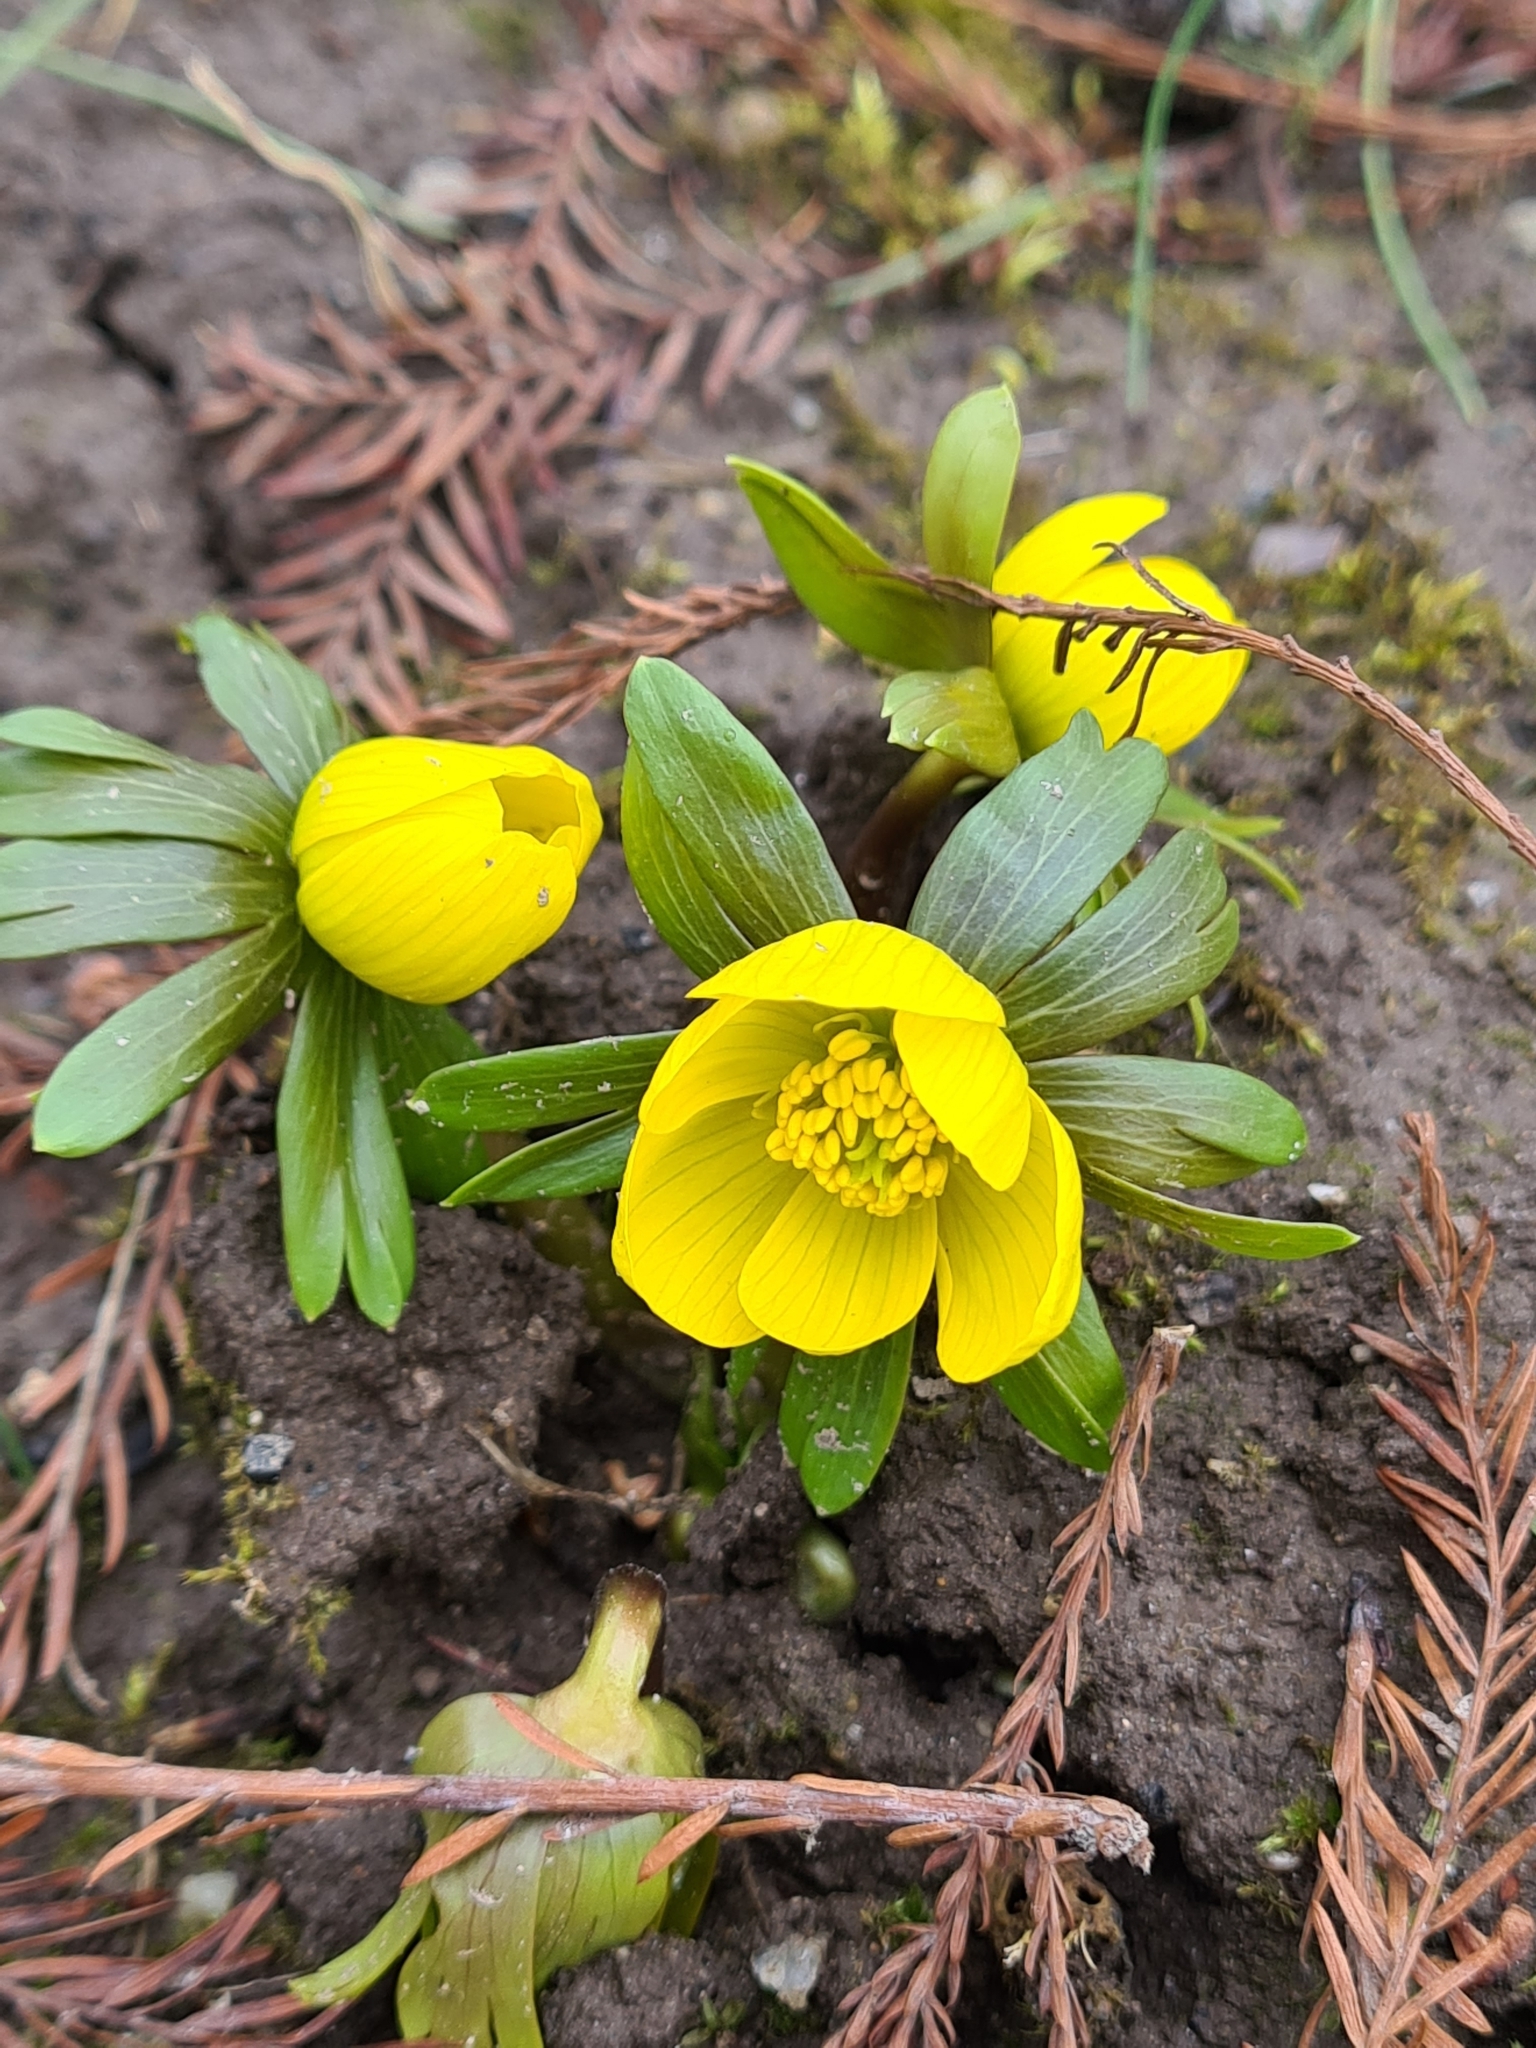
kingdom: Plantae
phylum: Tracheophyta
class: Magnoliopsida
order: Ranunculales
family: Ranunculaceae
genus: Eranthis
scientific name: Eranthis hyemalis
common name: Winter aconite
